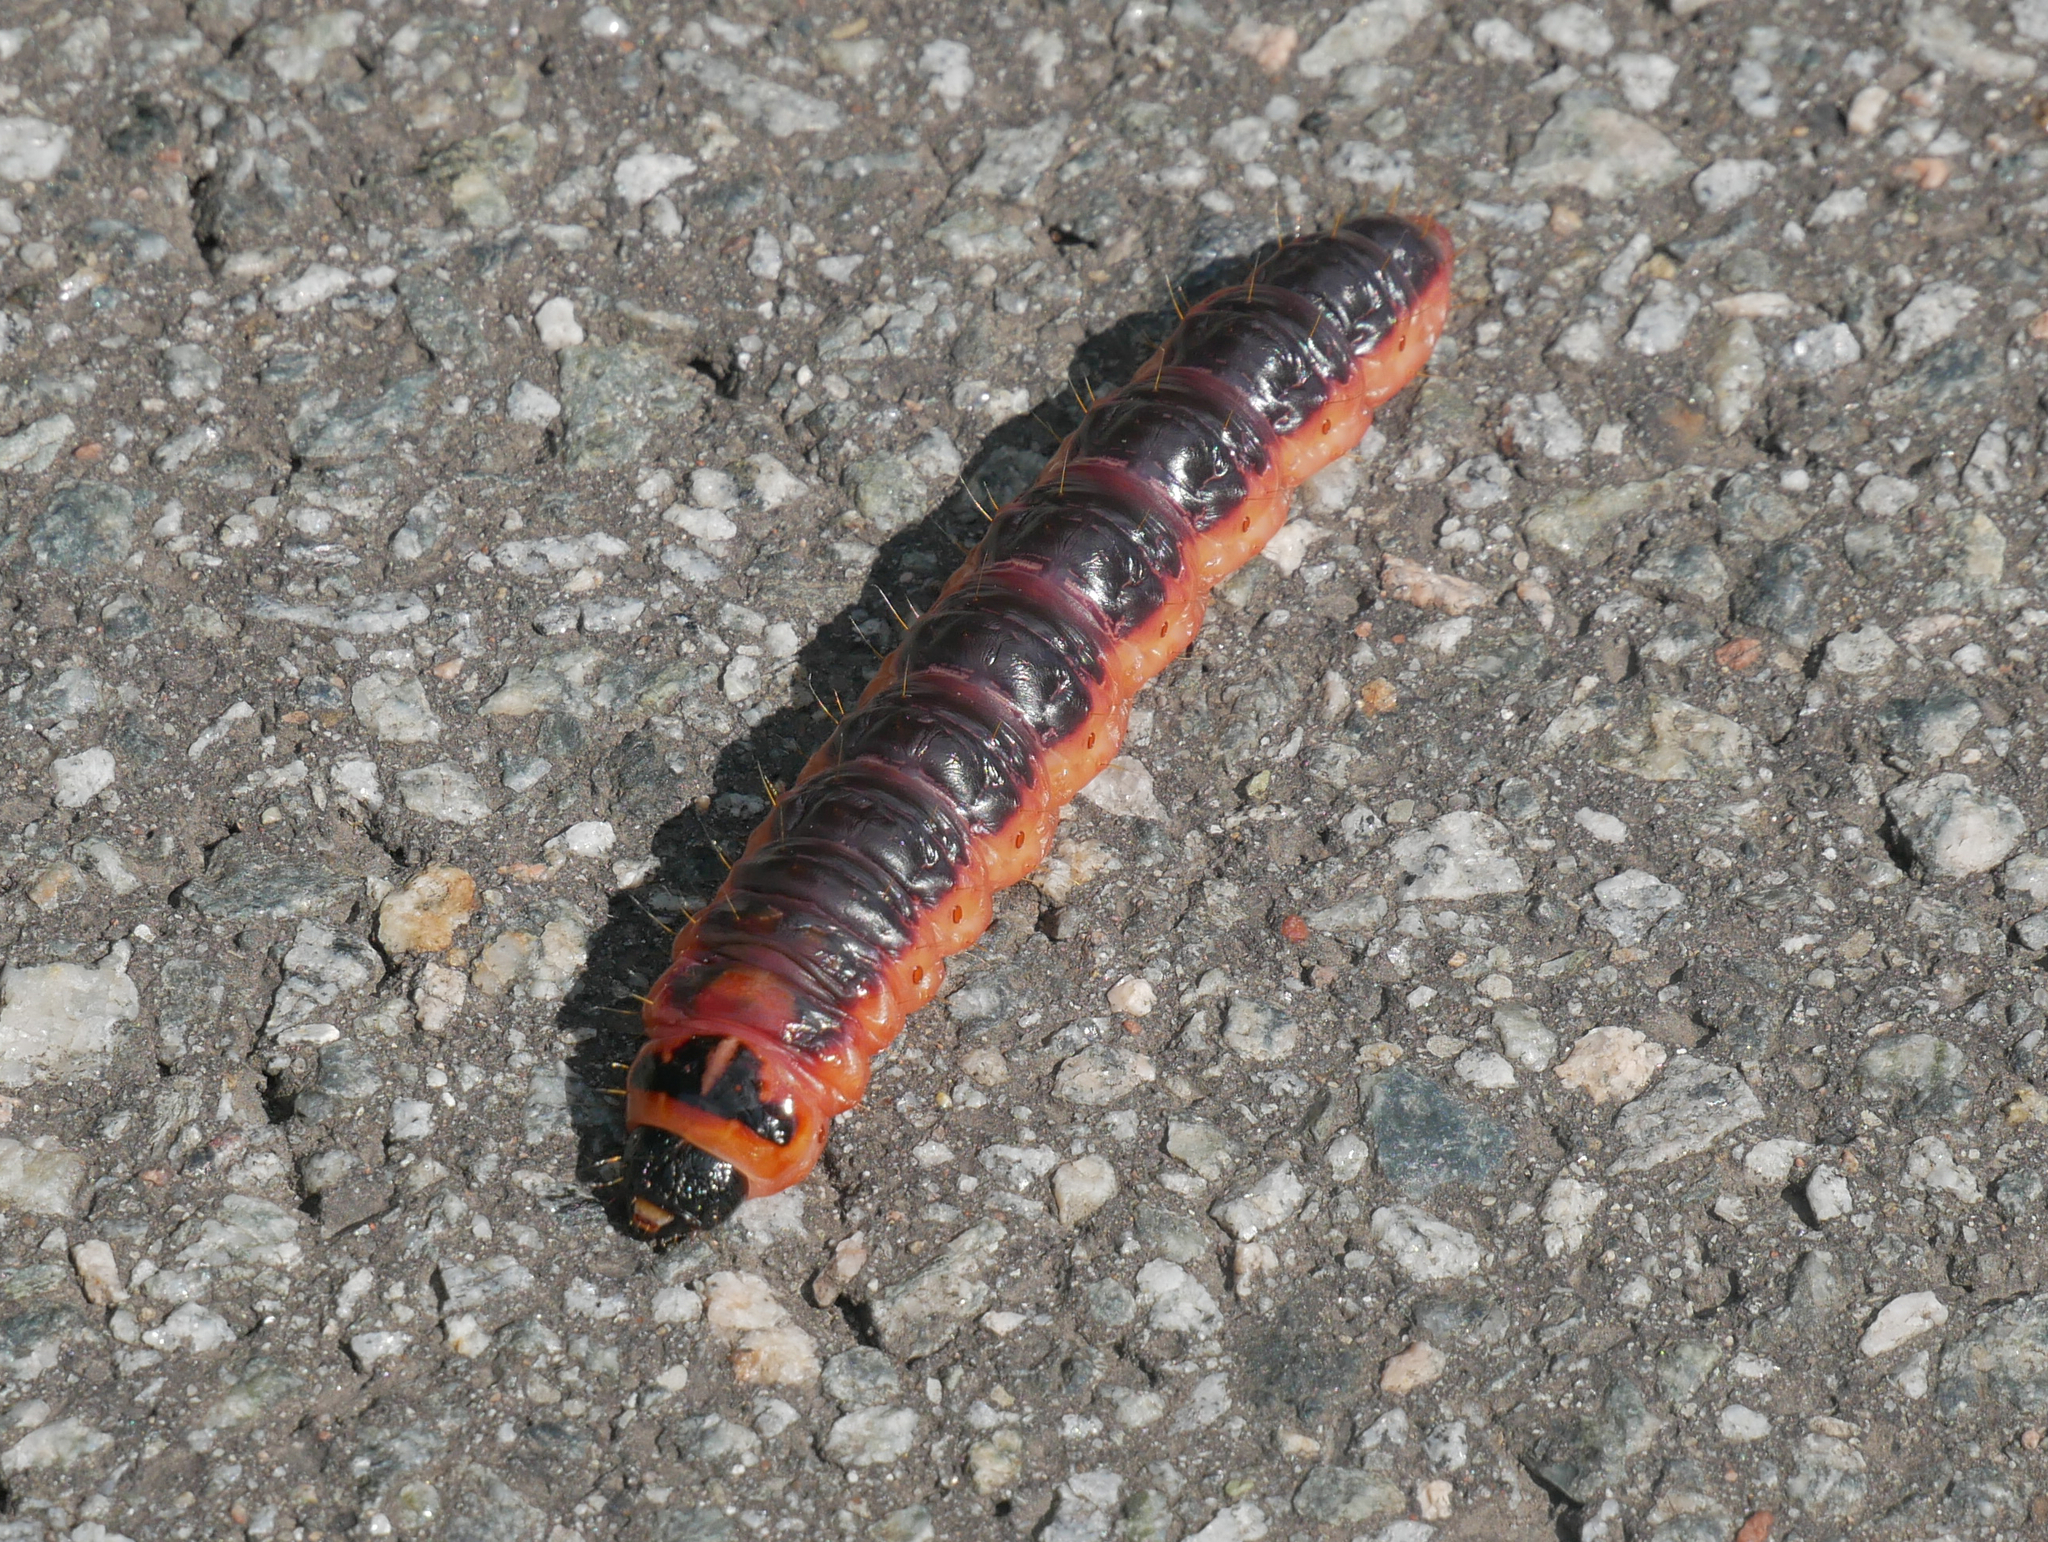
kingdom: Animalia
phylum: Arthropoda
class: Insecta
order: Lepidoptera
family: Cossidae
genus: Cossus
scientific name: Cossus cossus
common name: Goat moth
